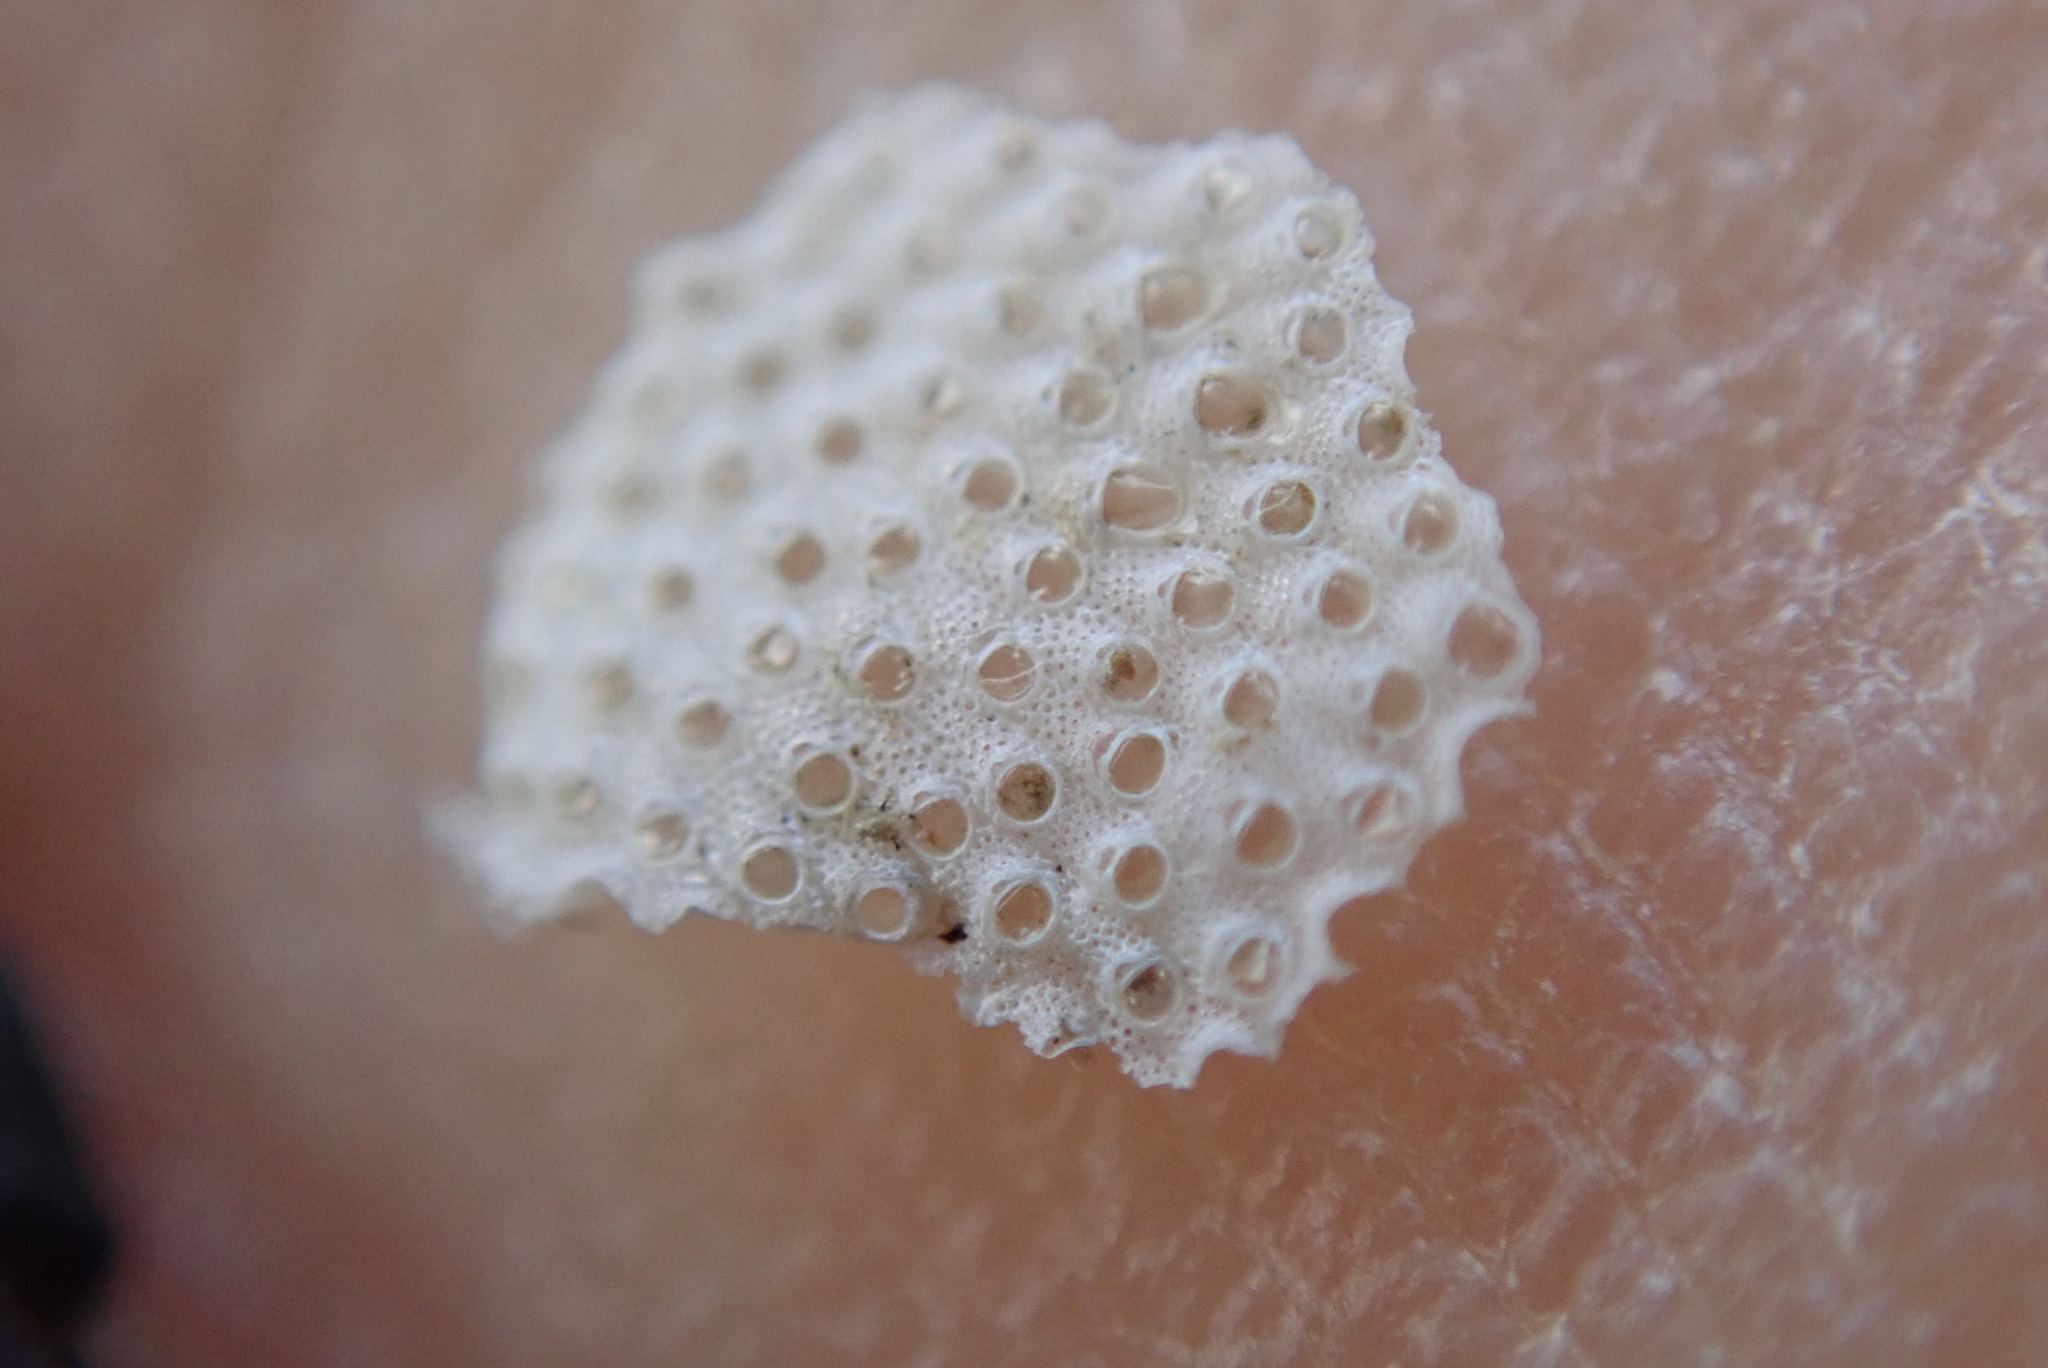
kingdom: Animalia
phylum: Bryozoa
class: Gymnolaemata
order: Cheilostomatida
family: Pacificincolidae
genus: Primavelans
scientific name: Primavelans insculpta
